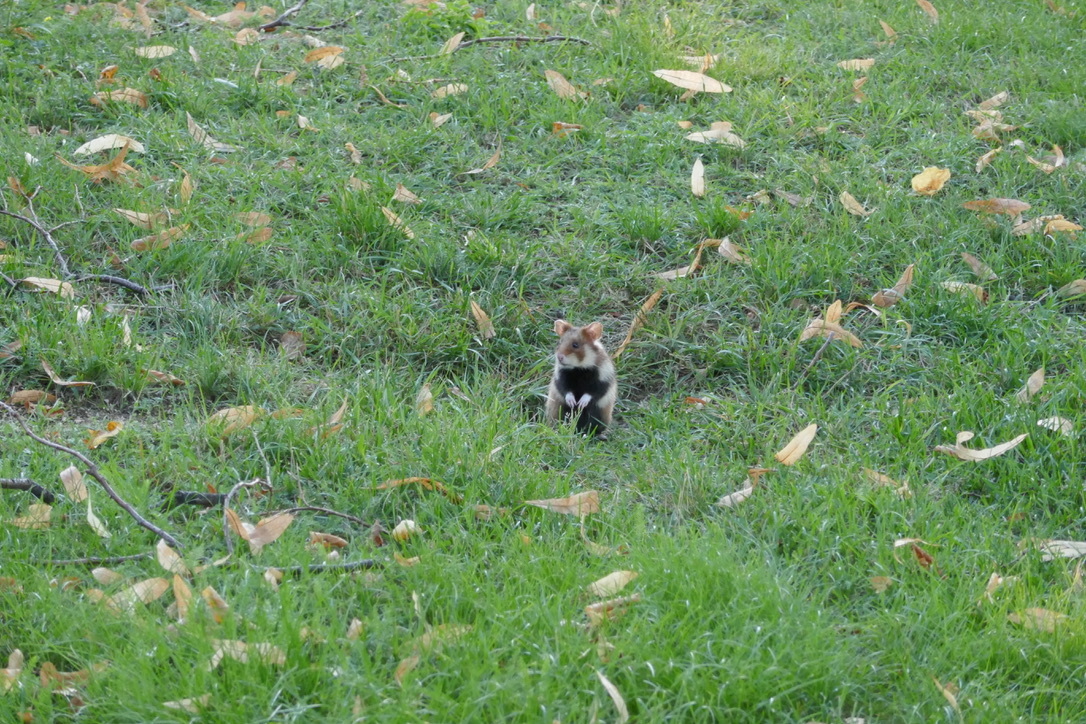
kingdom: Animalia
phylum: Chordata
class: Mammalia
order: Rodentia
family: Cricetidae
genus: Cricetus
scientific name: Cricetus cricetus
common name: Common hamster
